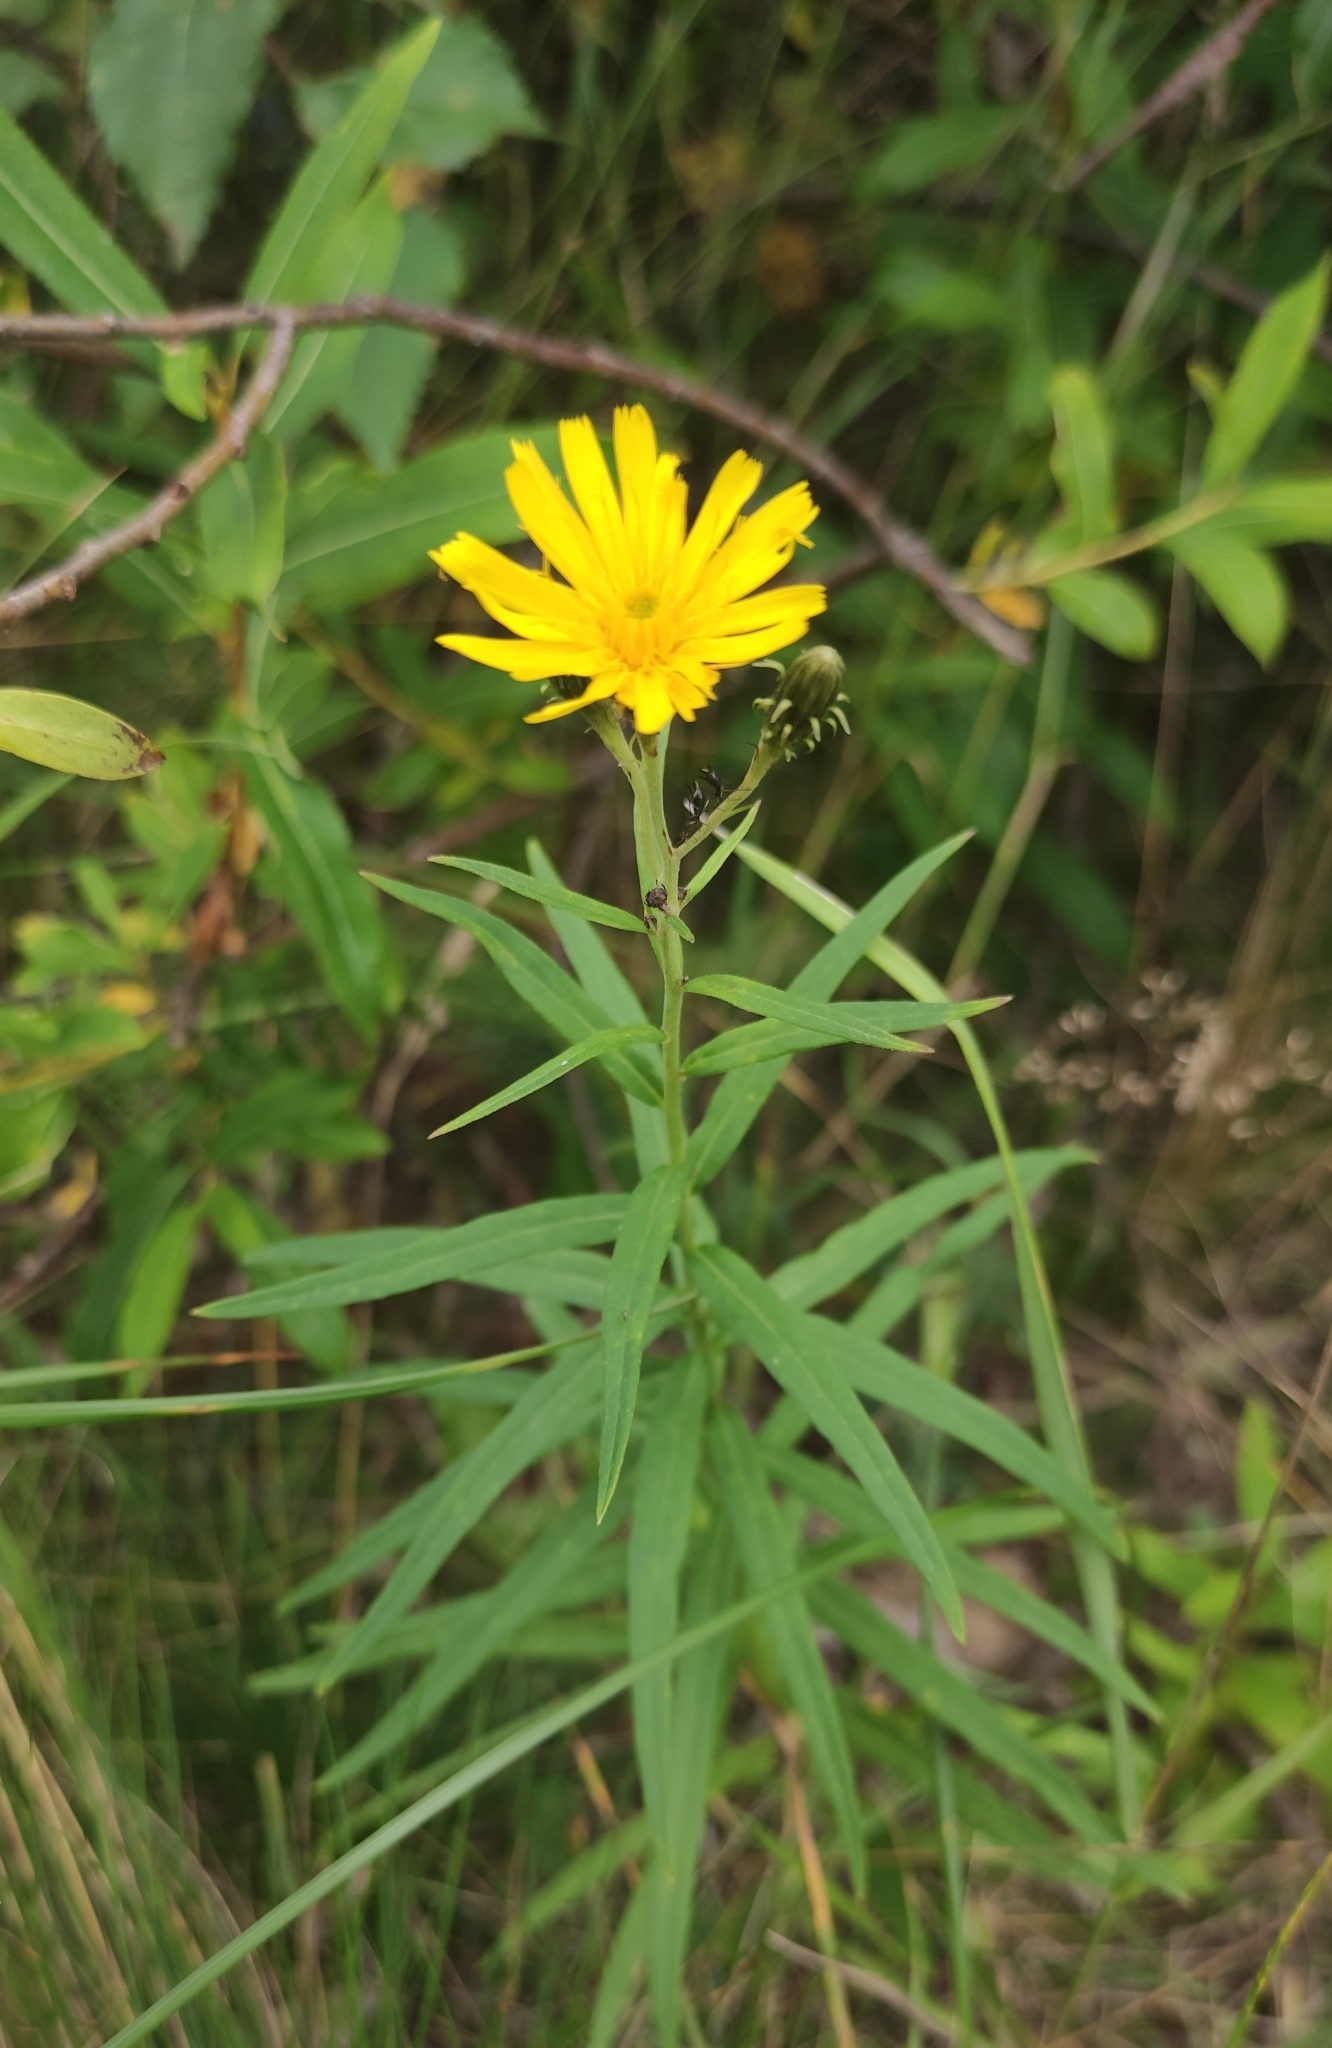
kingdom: Plantae
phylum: Tracheophyta
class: Magnoliopsida
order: Asterales
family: Asteraceae
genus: Hieracium
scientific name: Hieracium umbellatum
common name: Northern hawkweed
